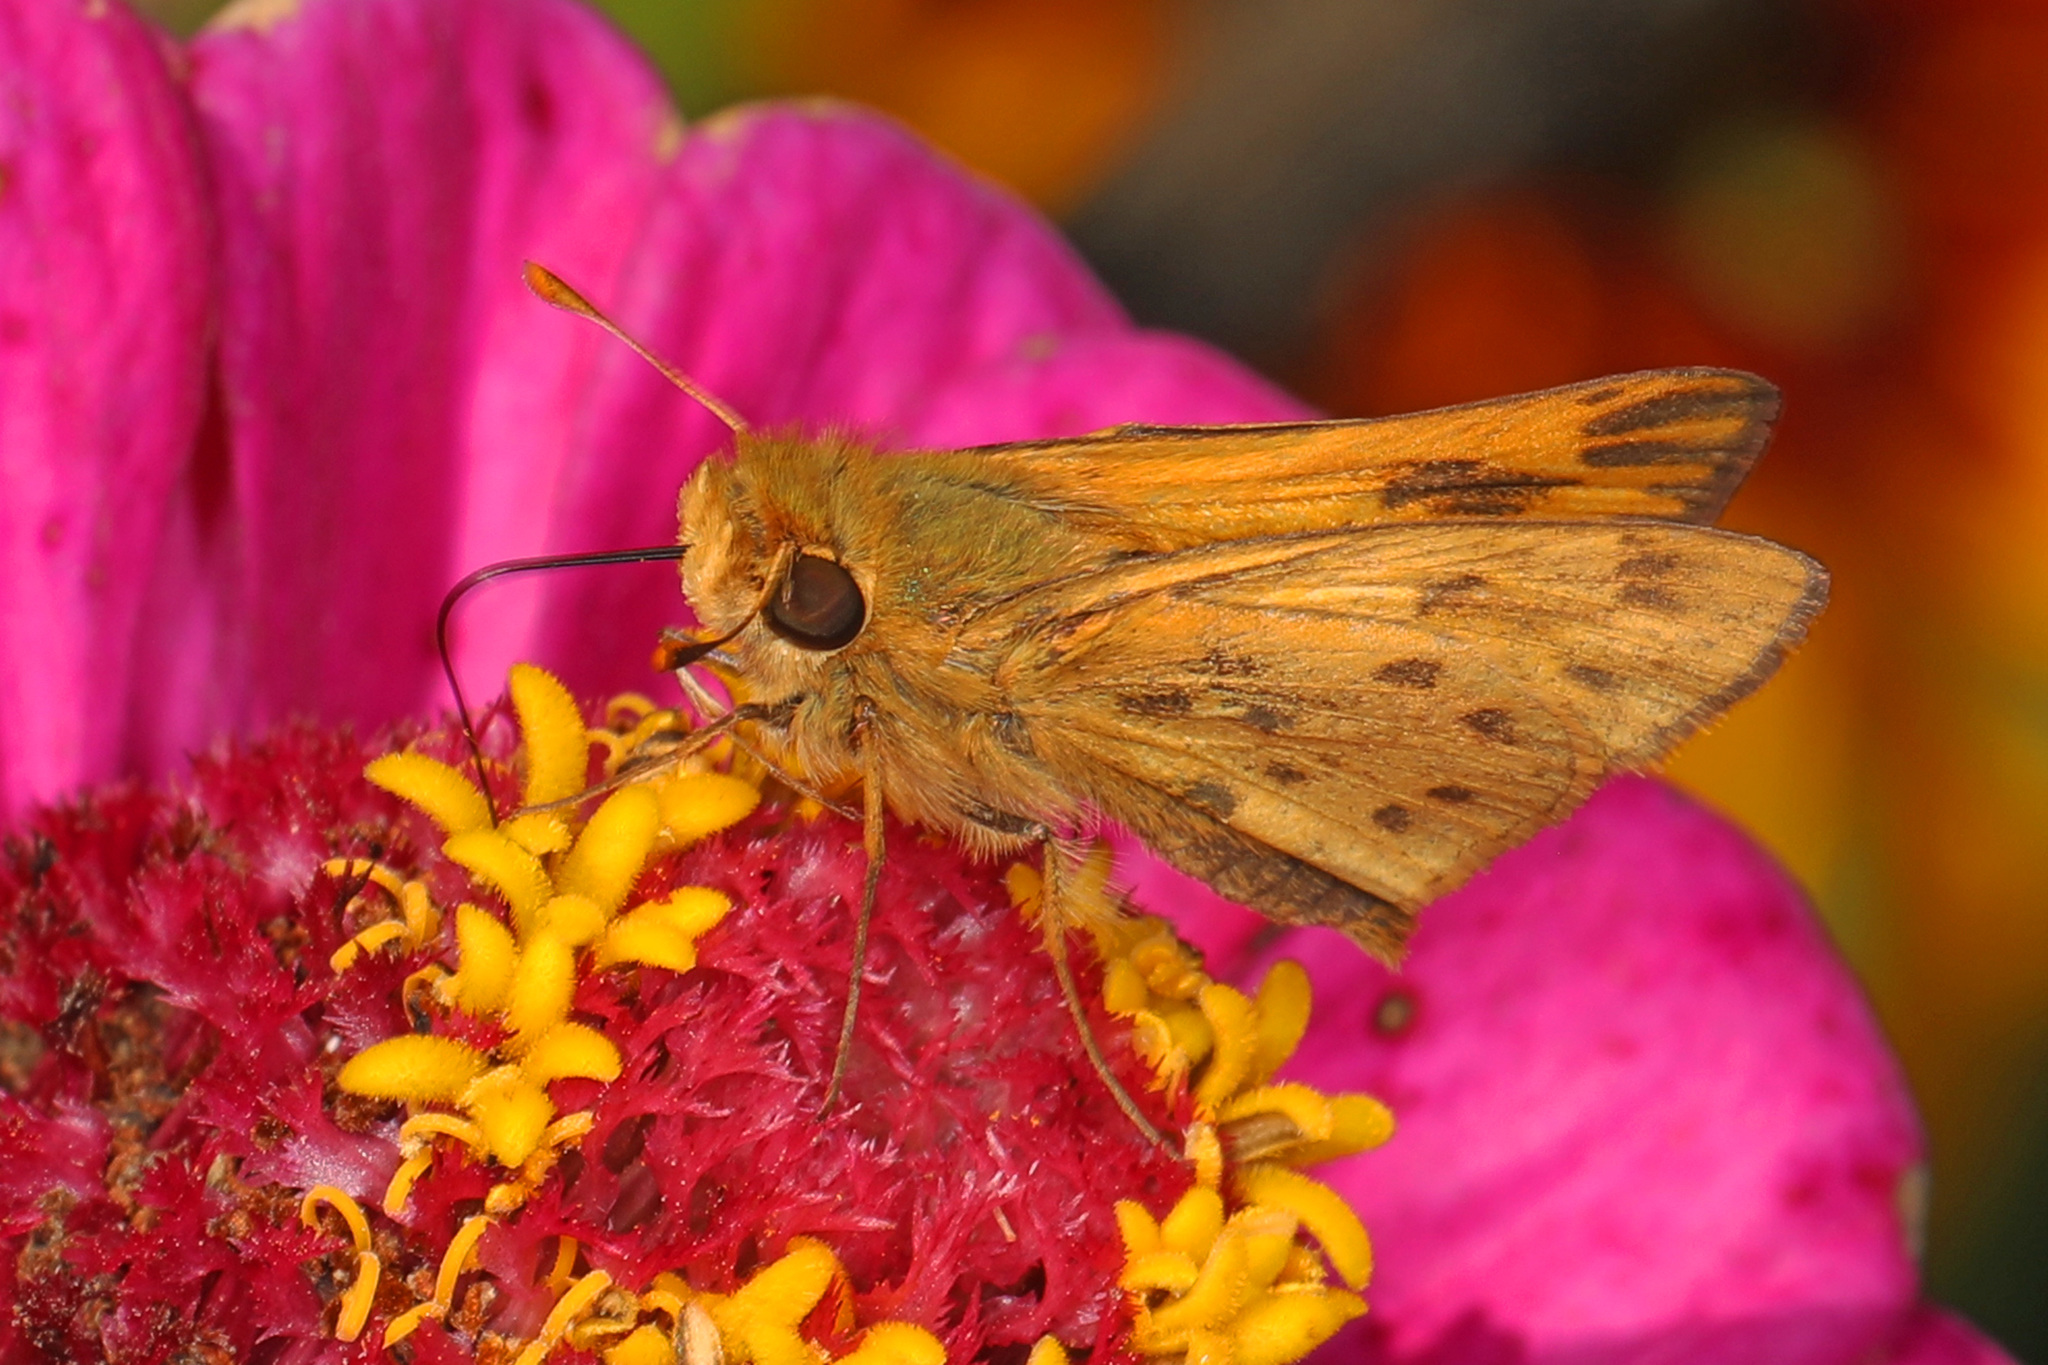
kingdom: Animalia
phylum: Arthropoda
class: Insecta
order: Lepidoptera
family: Hesperiidae
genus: Hylephila
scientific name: Hylephila phyleus
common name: Fiery skipper
